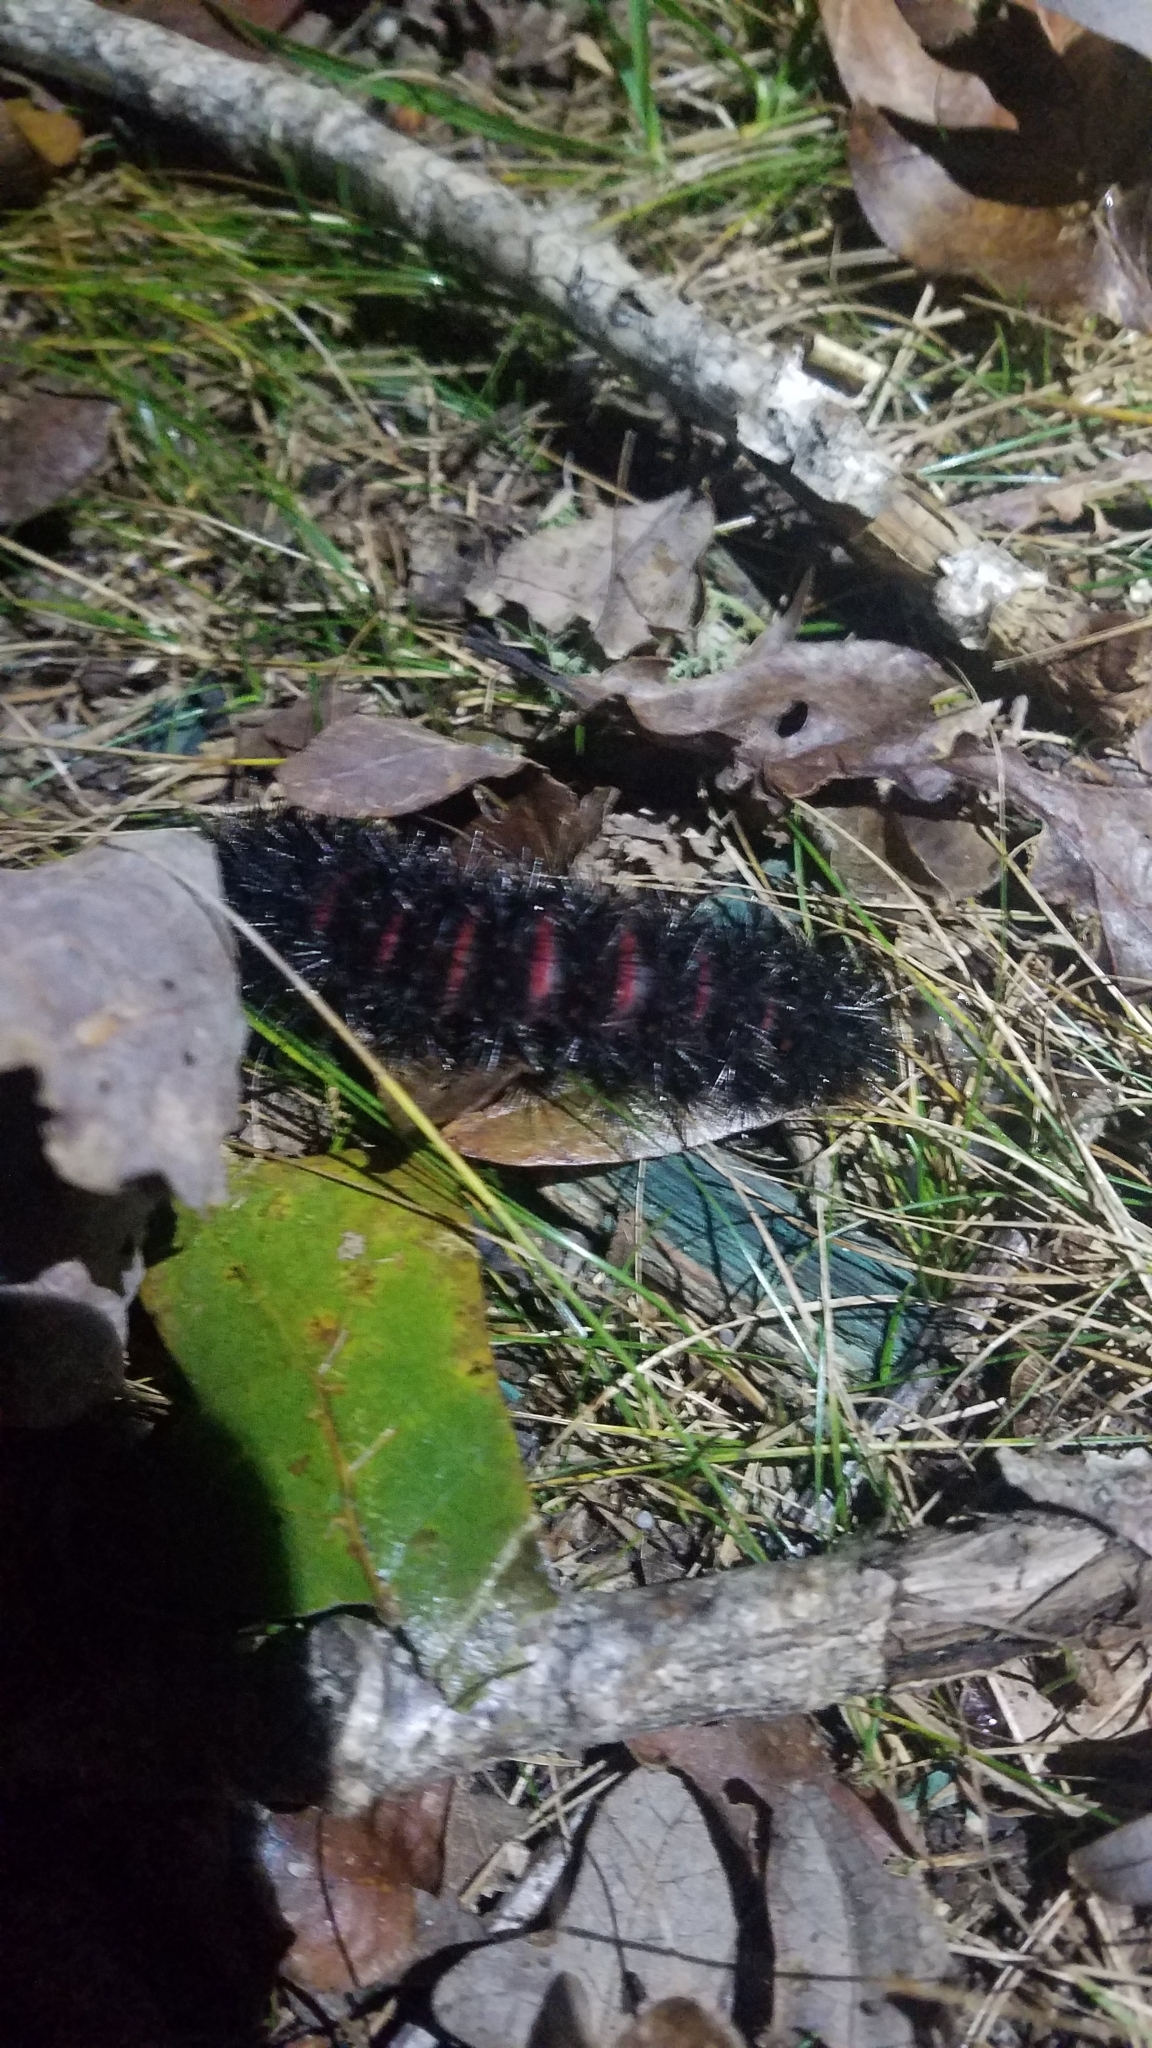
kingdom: Animalia
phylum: Arthropoda
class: Insecta
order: Lepidoptera
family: Erebidae
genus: Hypercompe
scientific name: Hypercompe scribonia
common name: Giant leopard moth
